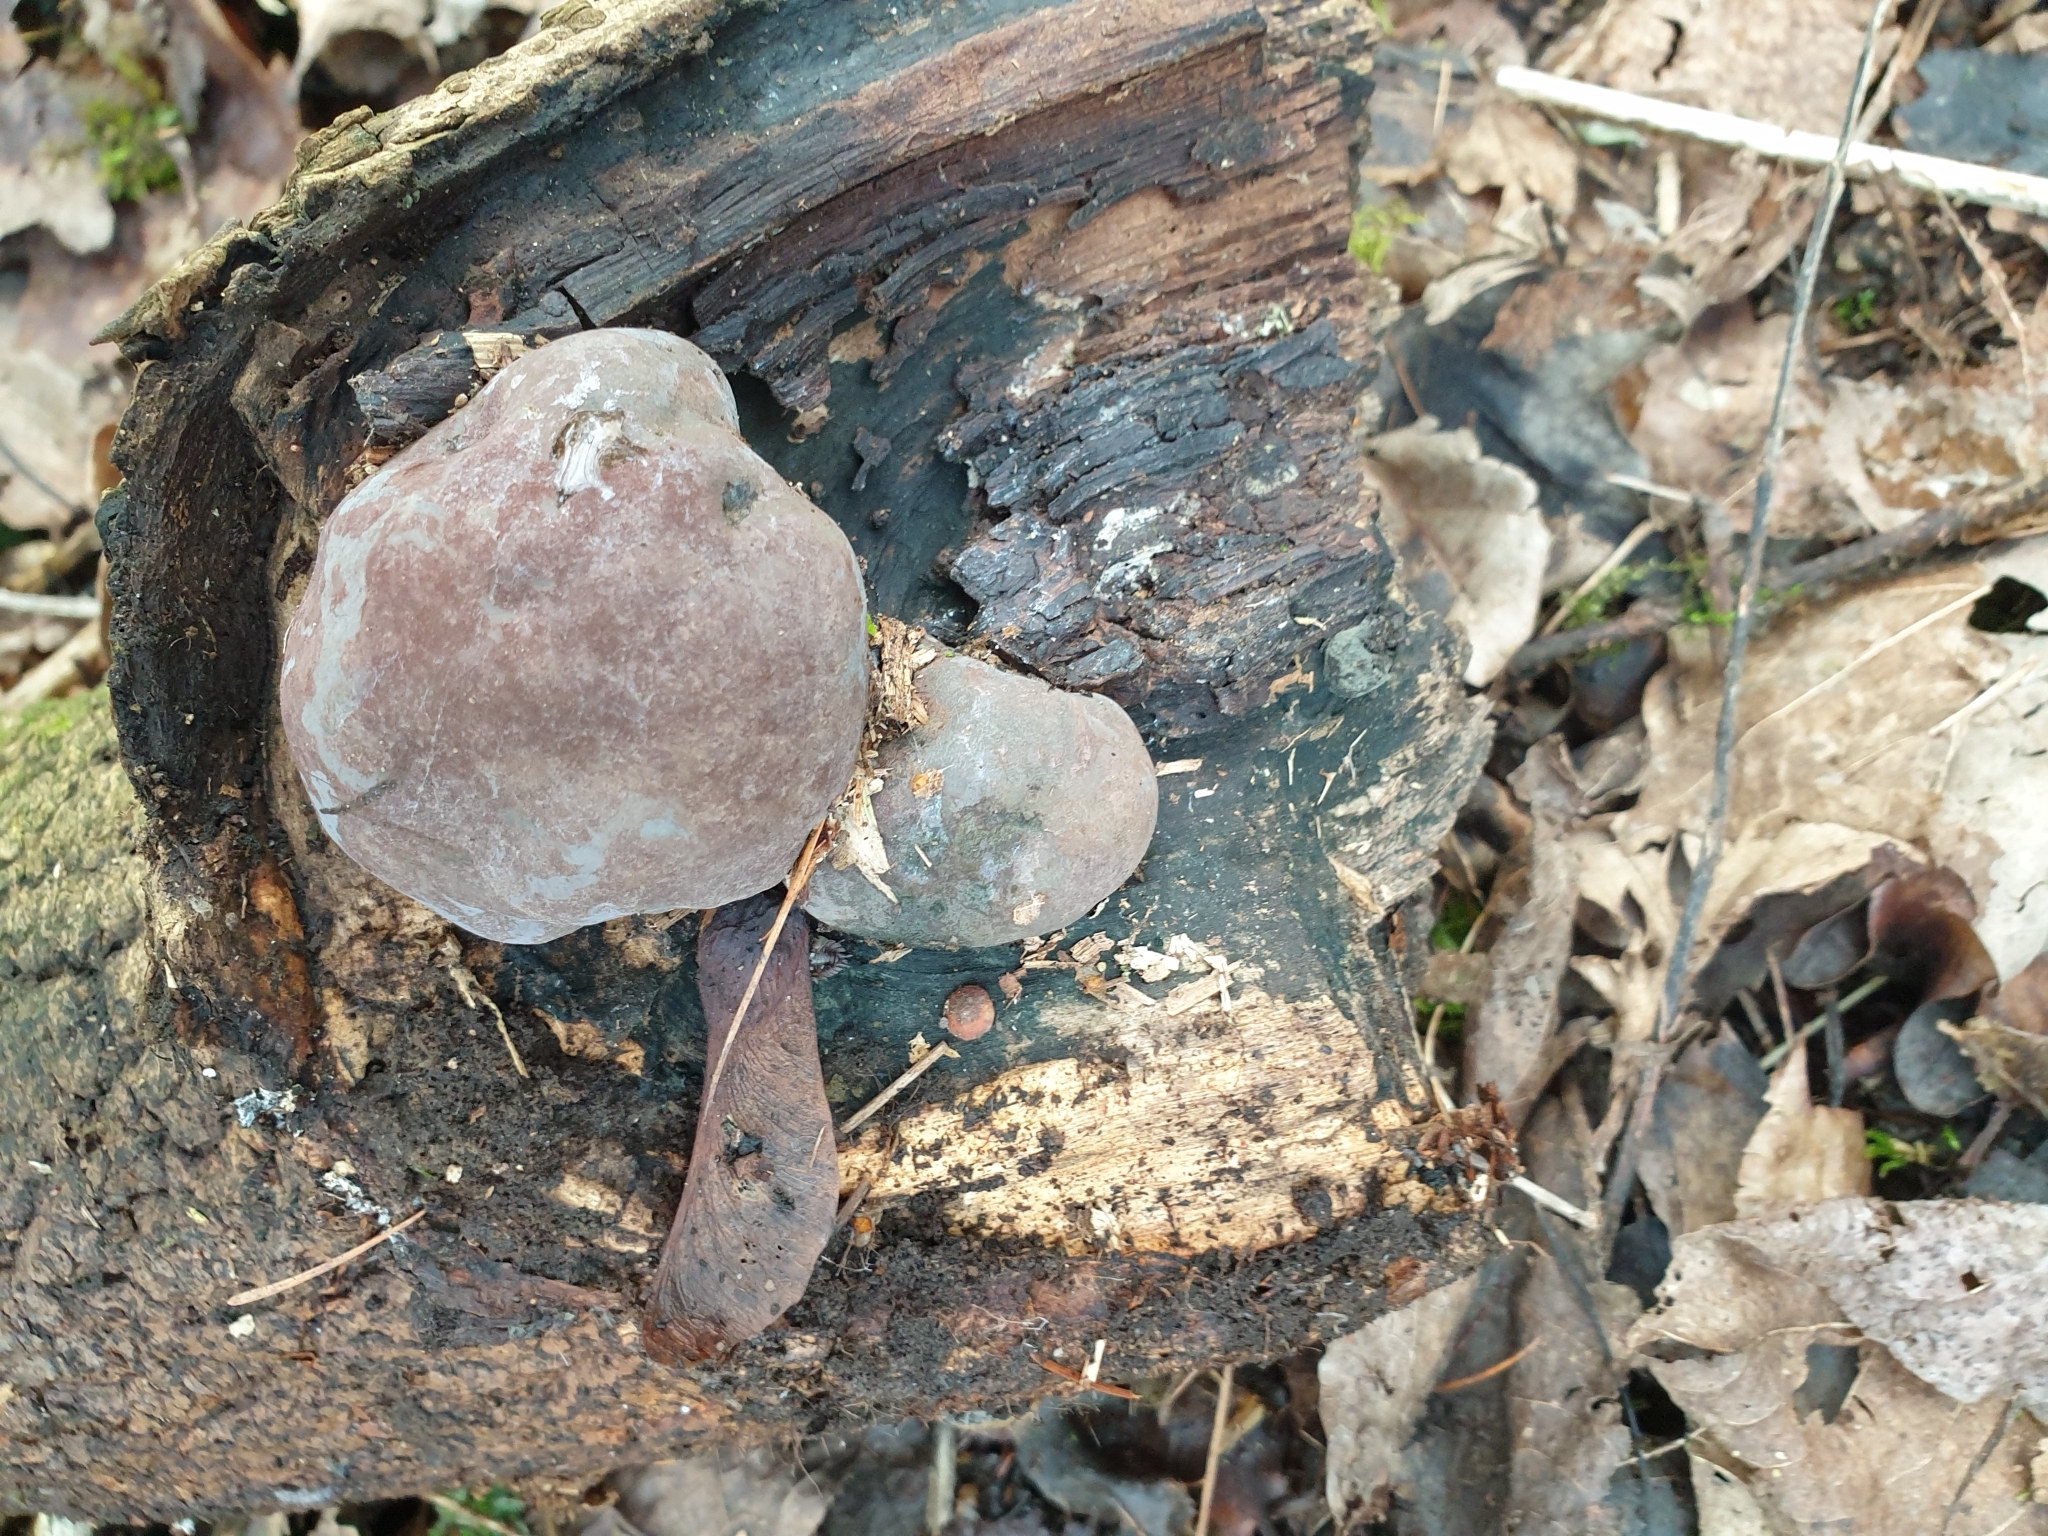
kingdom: Fungi
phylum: Ascomycota
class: Sordariomycetes
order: Xylariales
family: Hypoxylaceae
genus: Daldinia
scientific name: Daldinia concentrica
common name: Cramp balls
